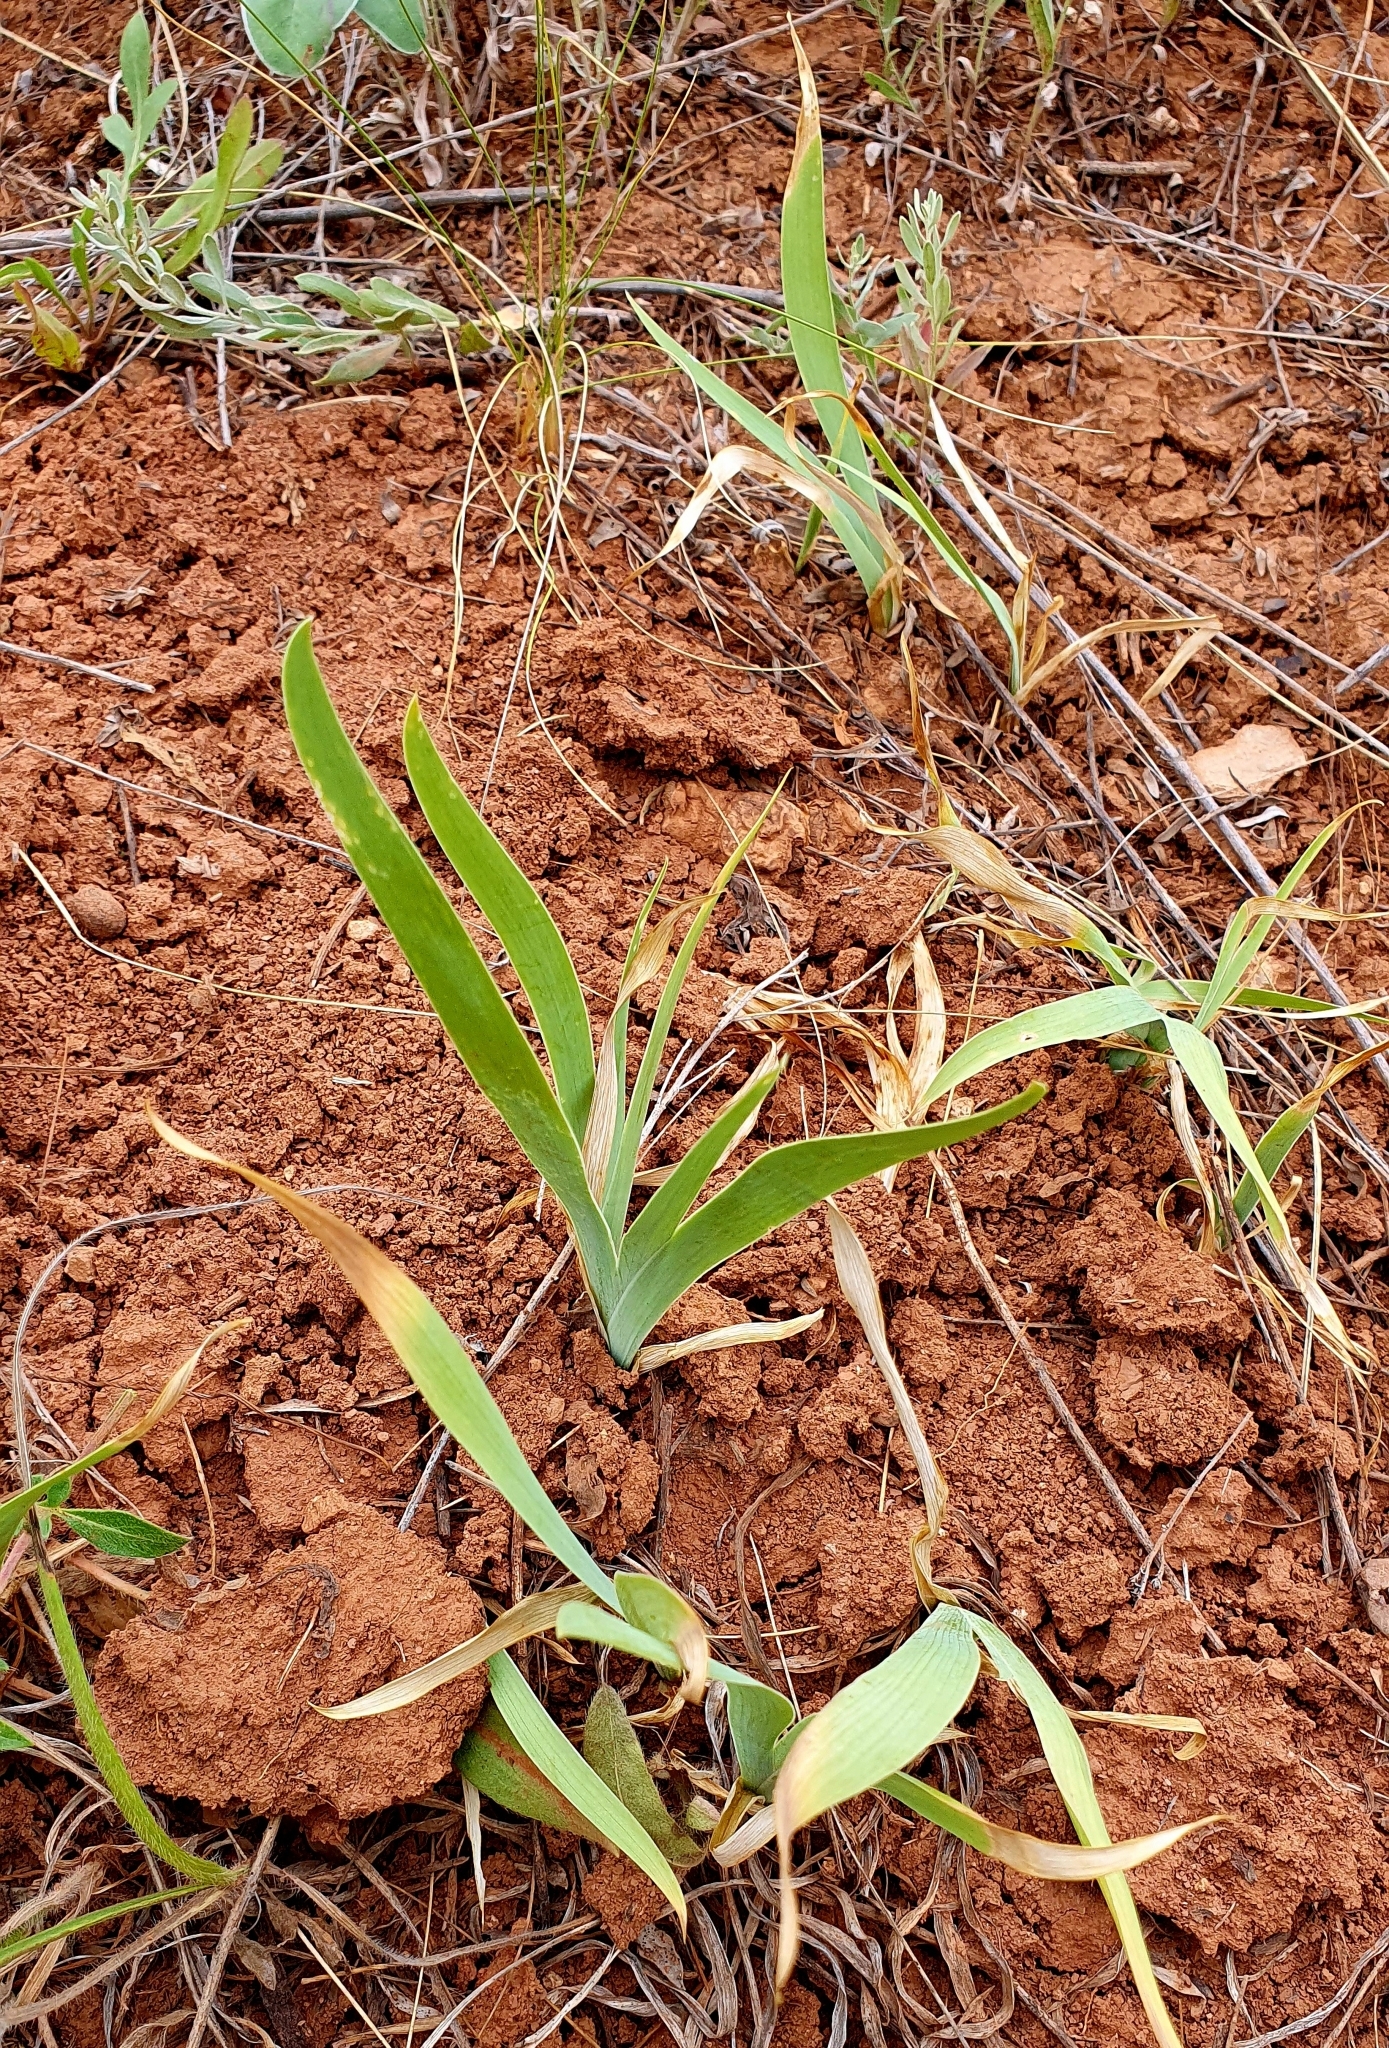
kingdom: Plantae
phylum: Tracheophyta
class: Liliopsida
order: Asparagales
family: Iridaceae
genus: Iris
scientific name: Iris pumila
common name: Dwarf iris
